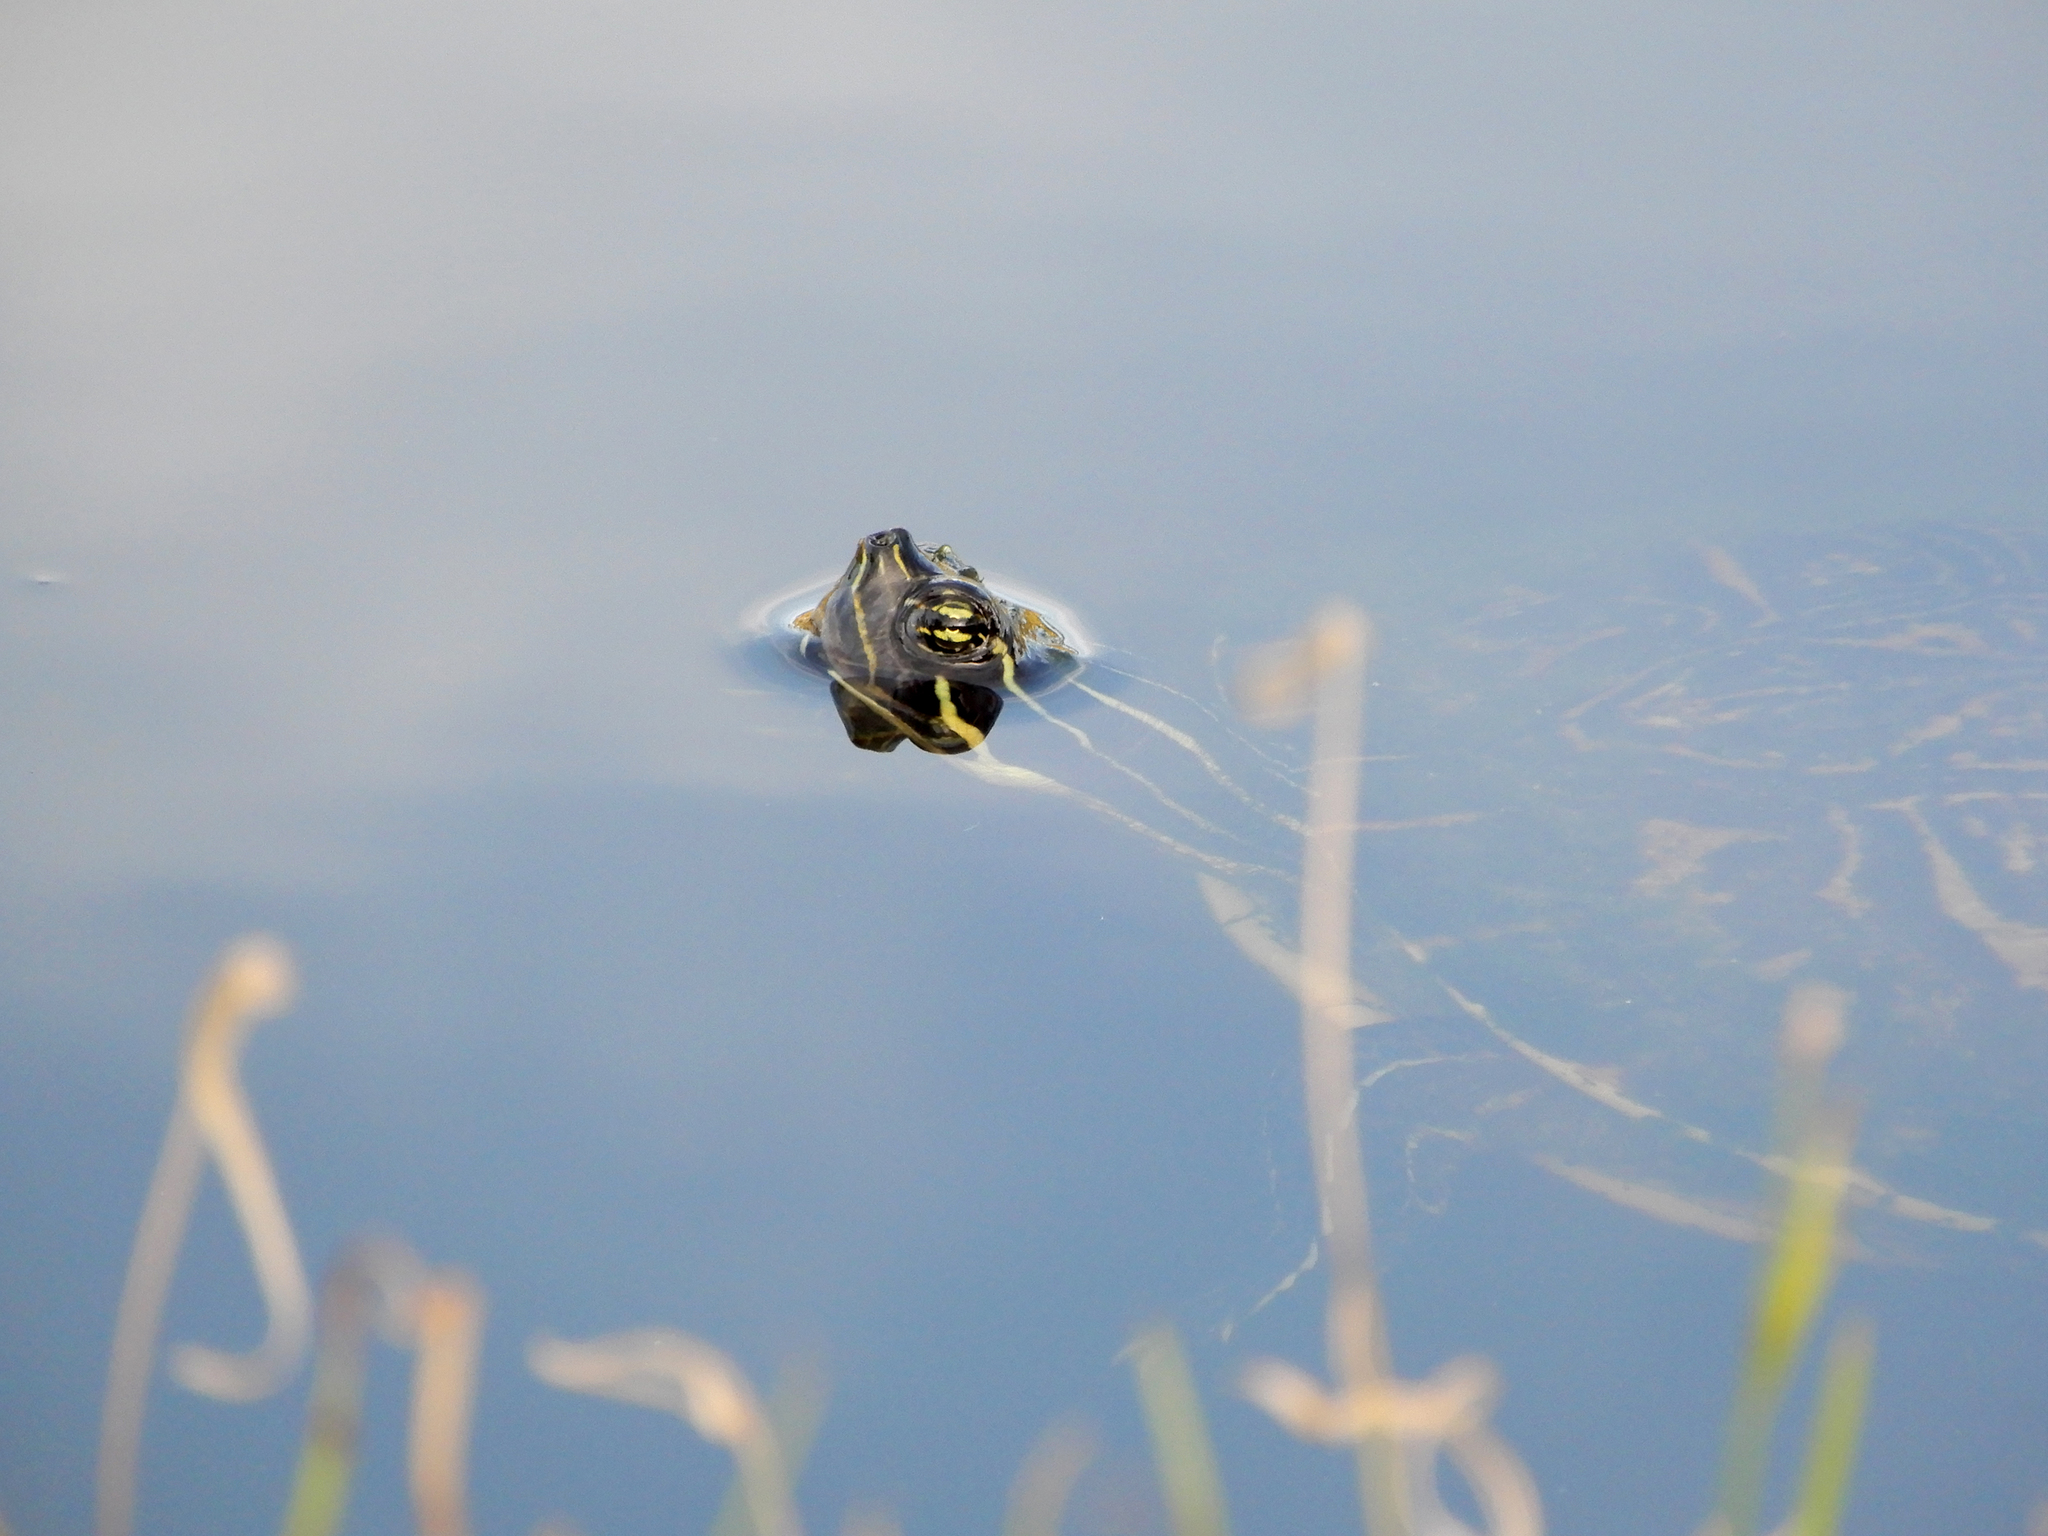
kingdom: Animalia
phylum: Chordata
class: Testudines
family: Emydidae
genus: Pseudemys
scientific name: Pseudemys peninsularis
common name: Peninsula cooter
